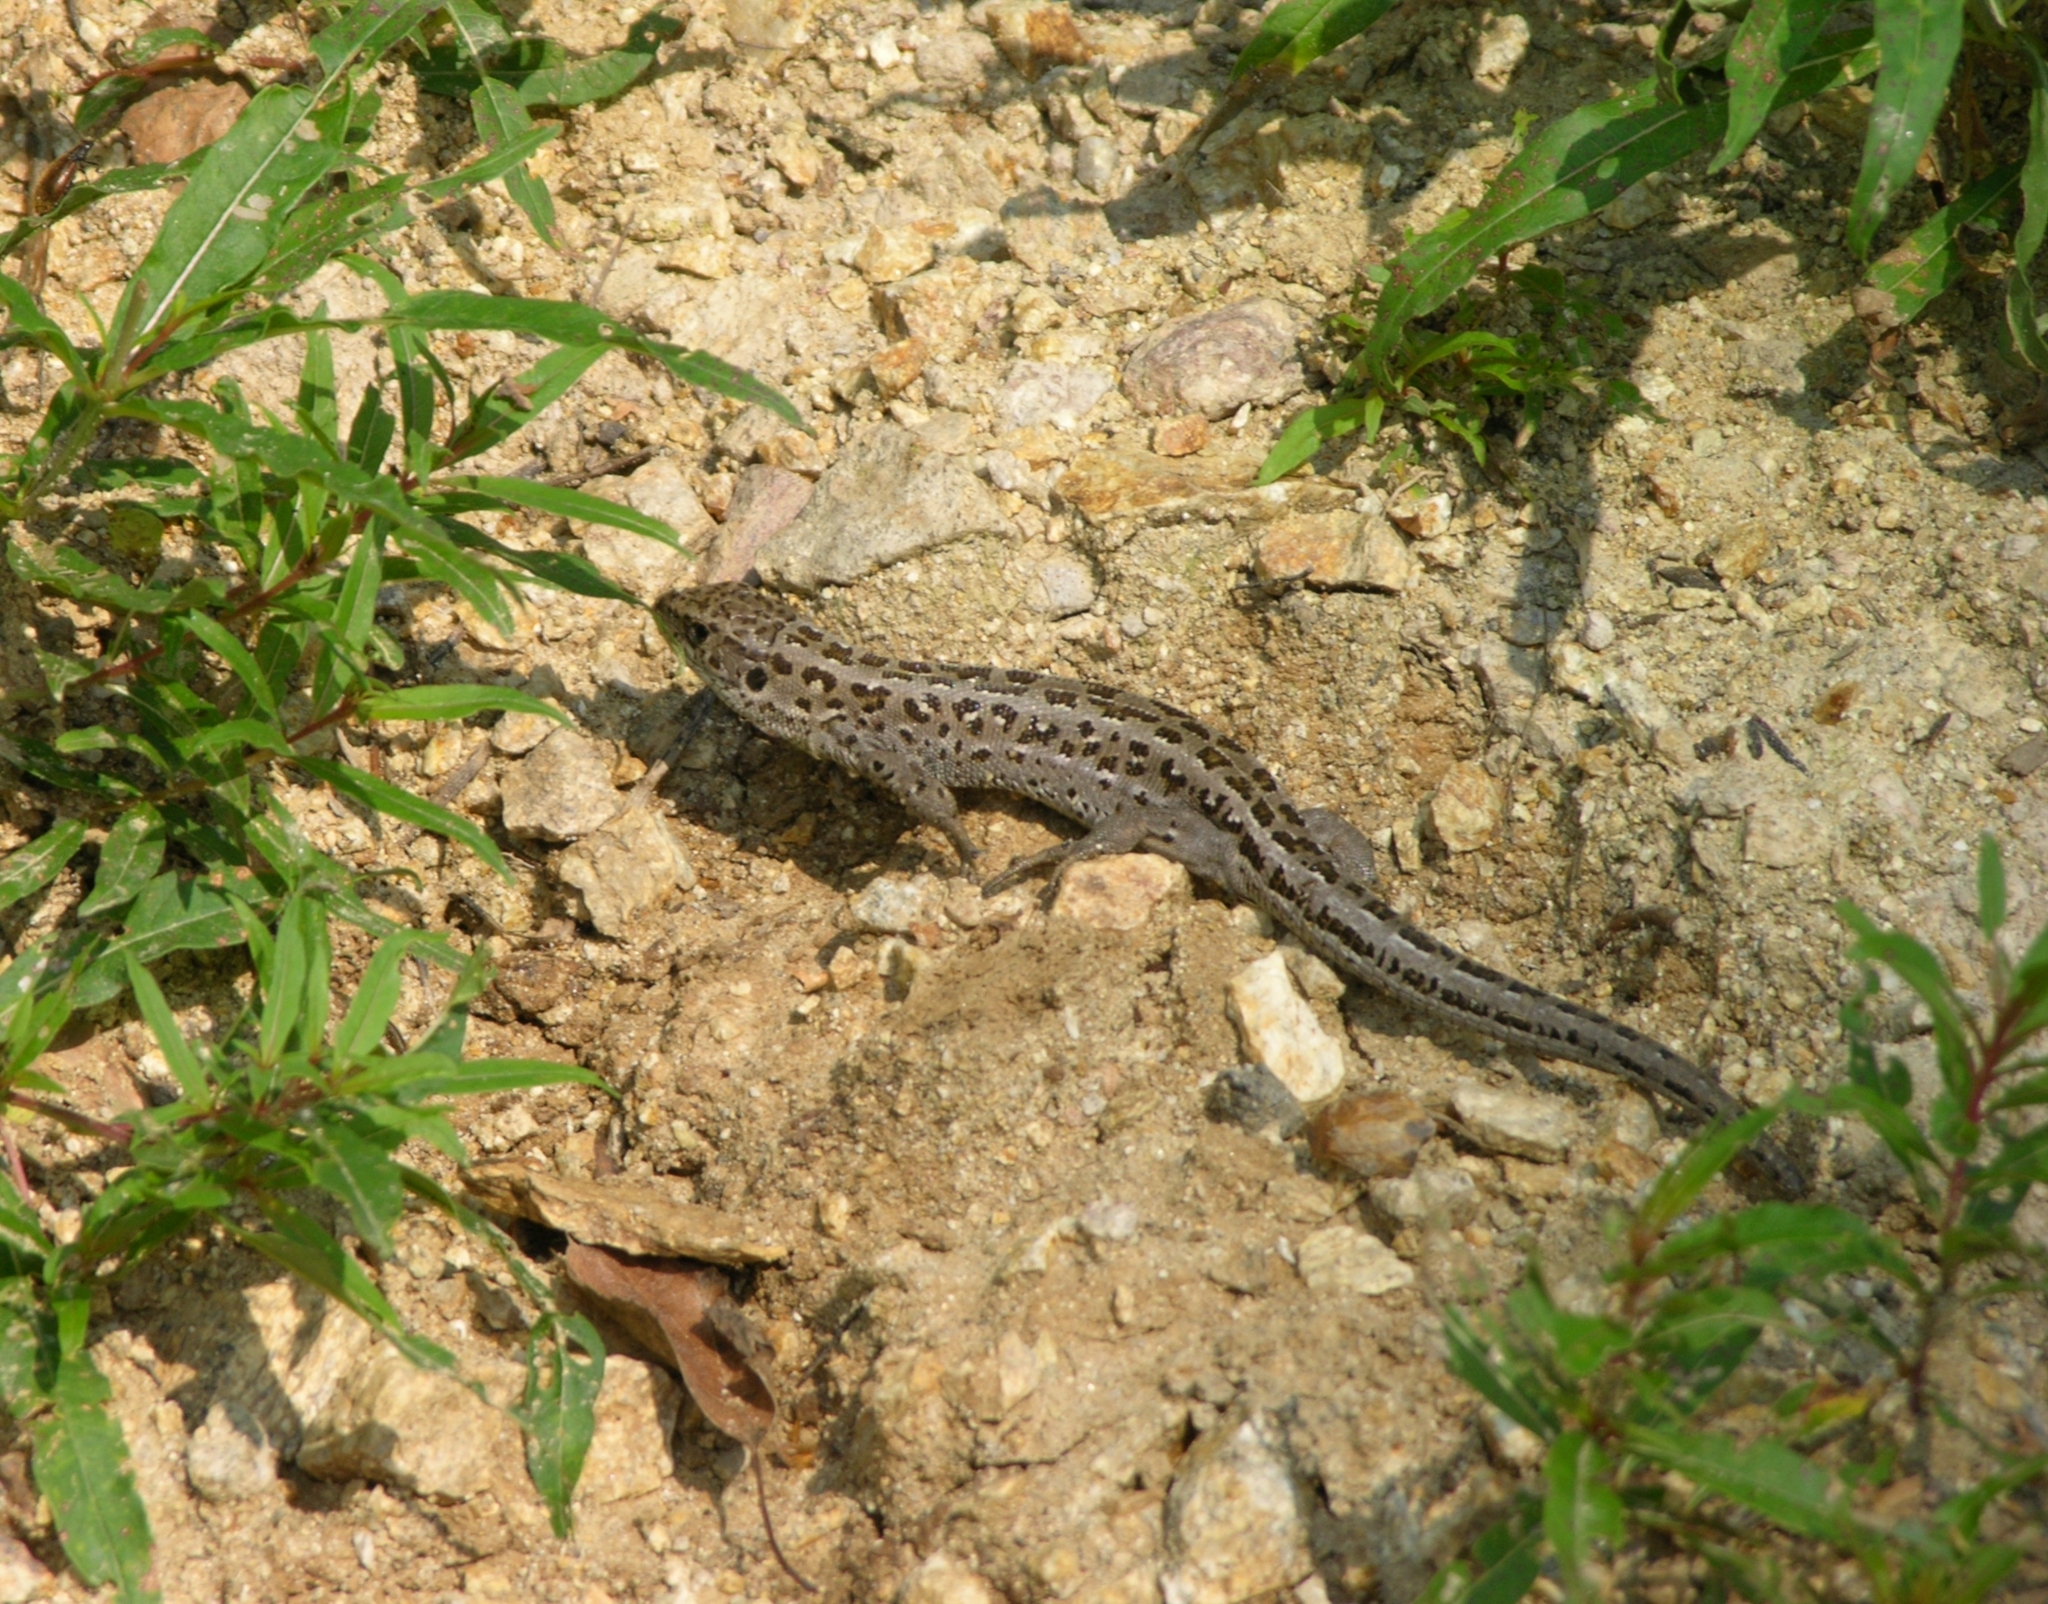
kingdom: Animalia
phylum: Chordata
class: Squamata
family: Lacertidae
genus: Lacerta
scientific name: Lacerta agilis
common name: Sand lizard
